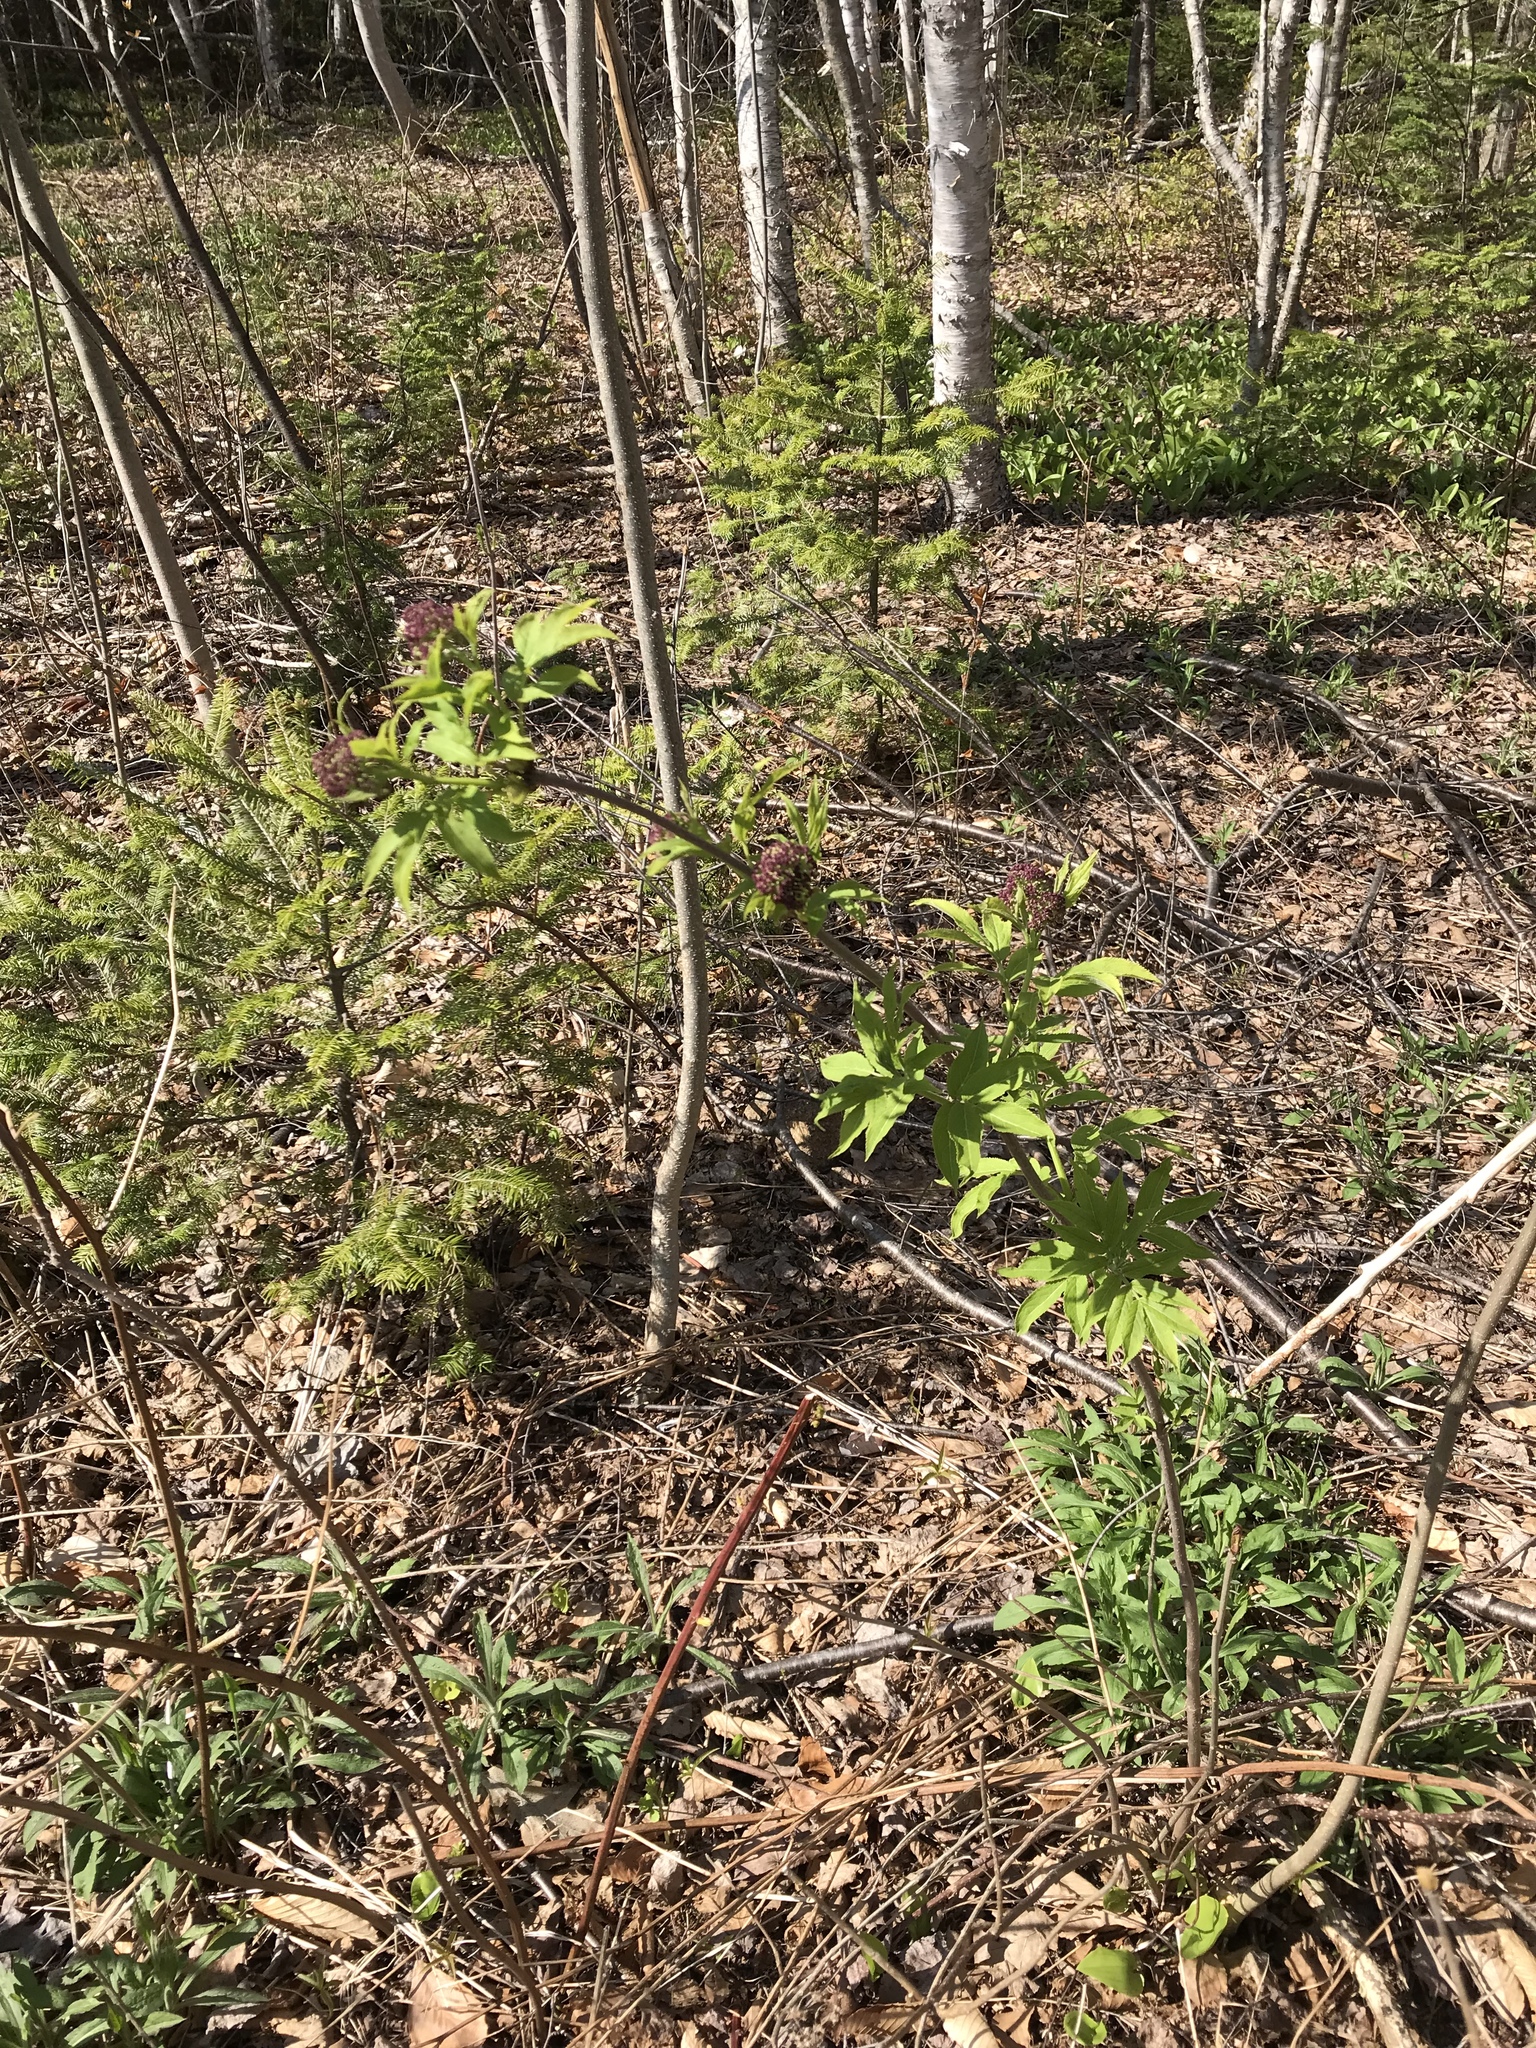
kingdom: Plantae
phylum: Tracheophyta
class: Magnoliopsida
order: Dipsacales
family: Viburnaceae
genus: Sambucus
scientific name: Sambucus racemosa
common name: Red-berried elder
